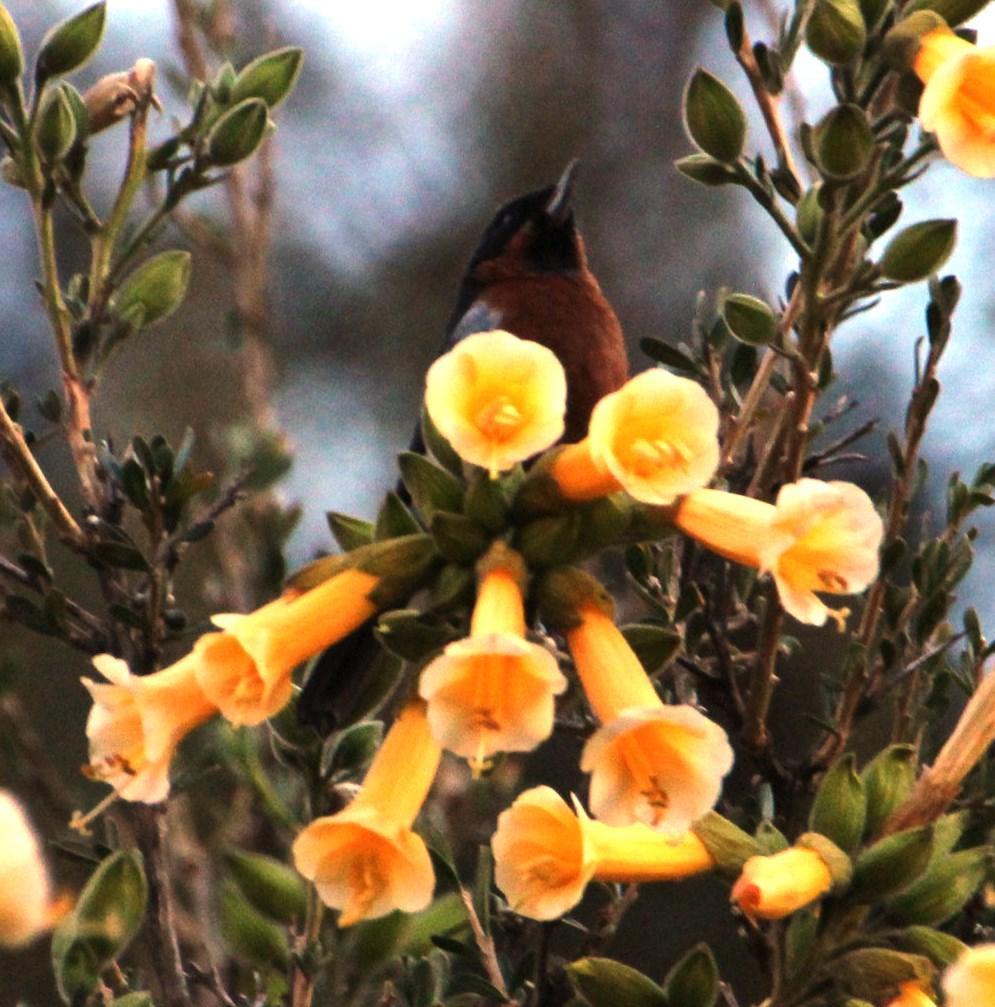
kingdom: Animalia
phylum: Chordata
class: Aves
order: Passeriformes
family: Thraupidae
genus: Diglossa
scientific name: Diglossa brunneiventris
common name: Black-throated flowerpiercer
